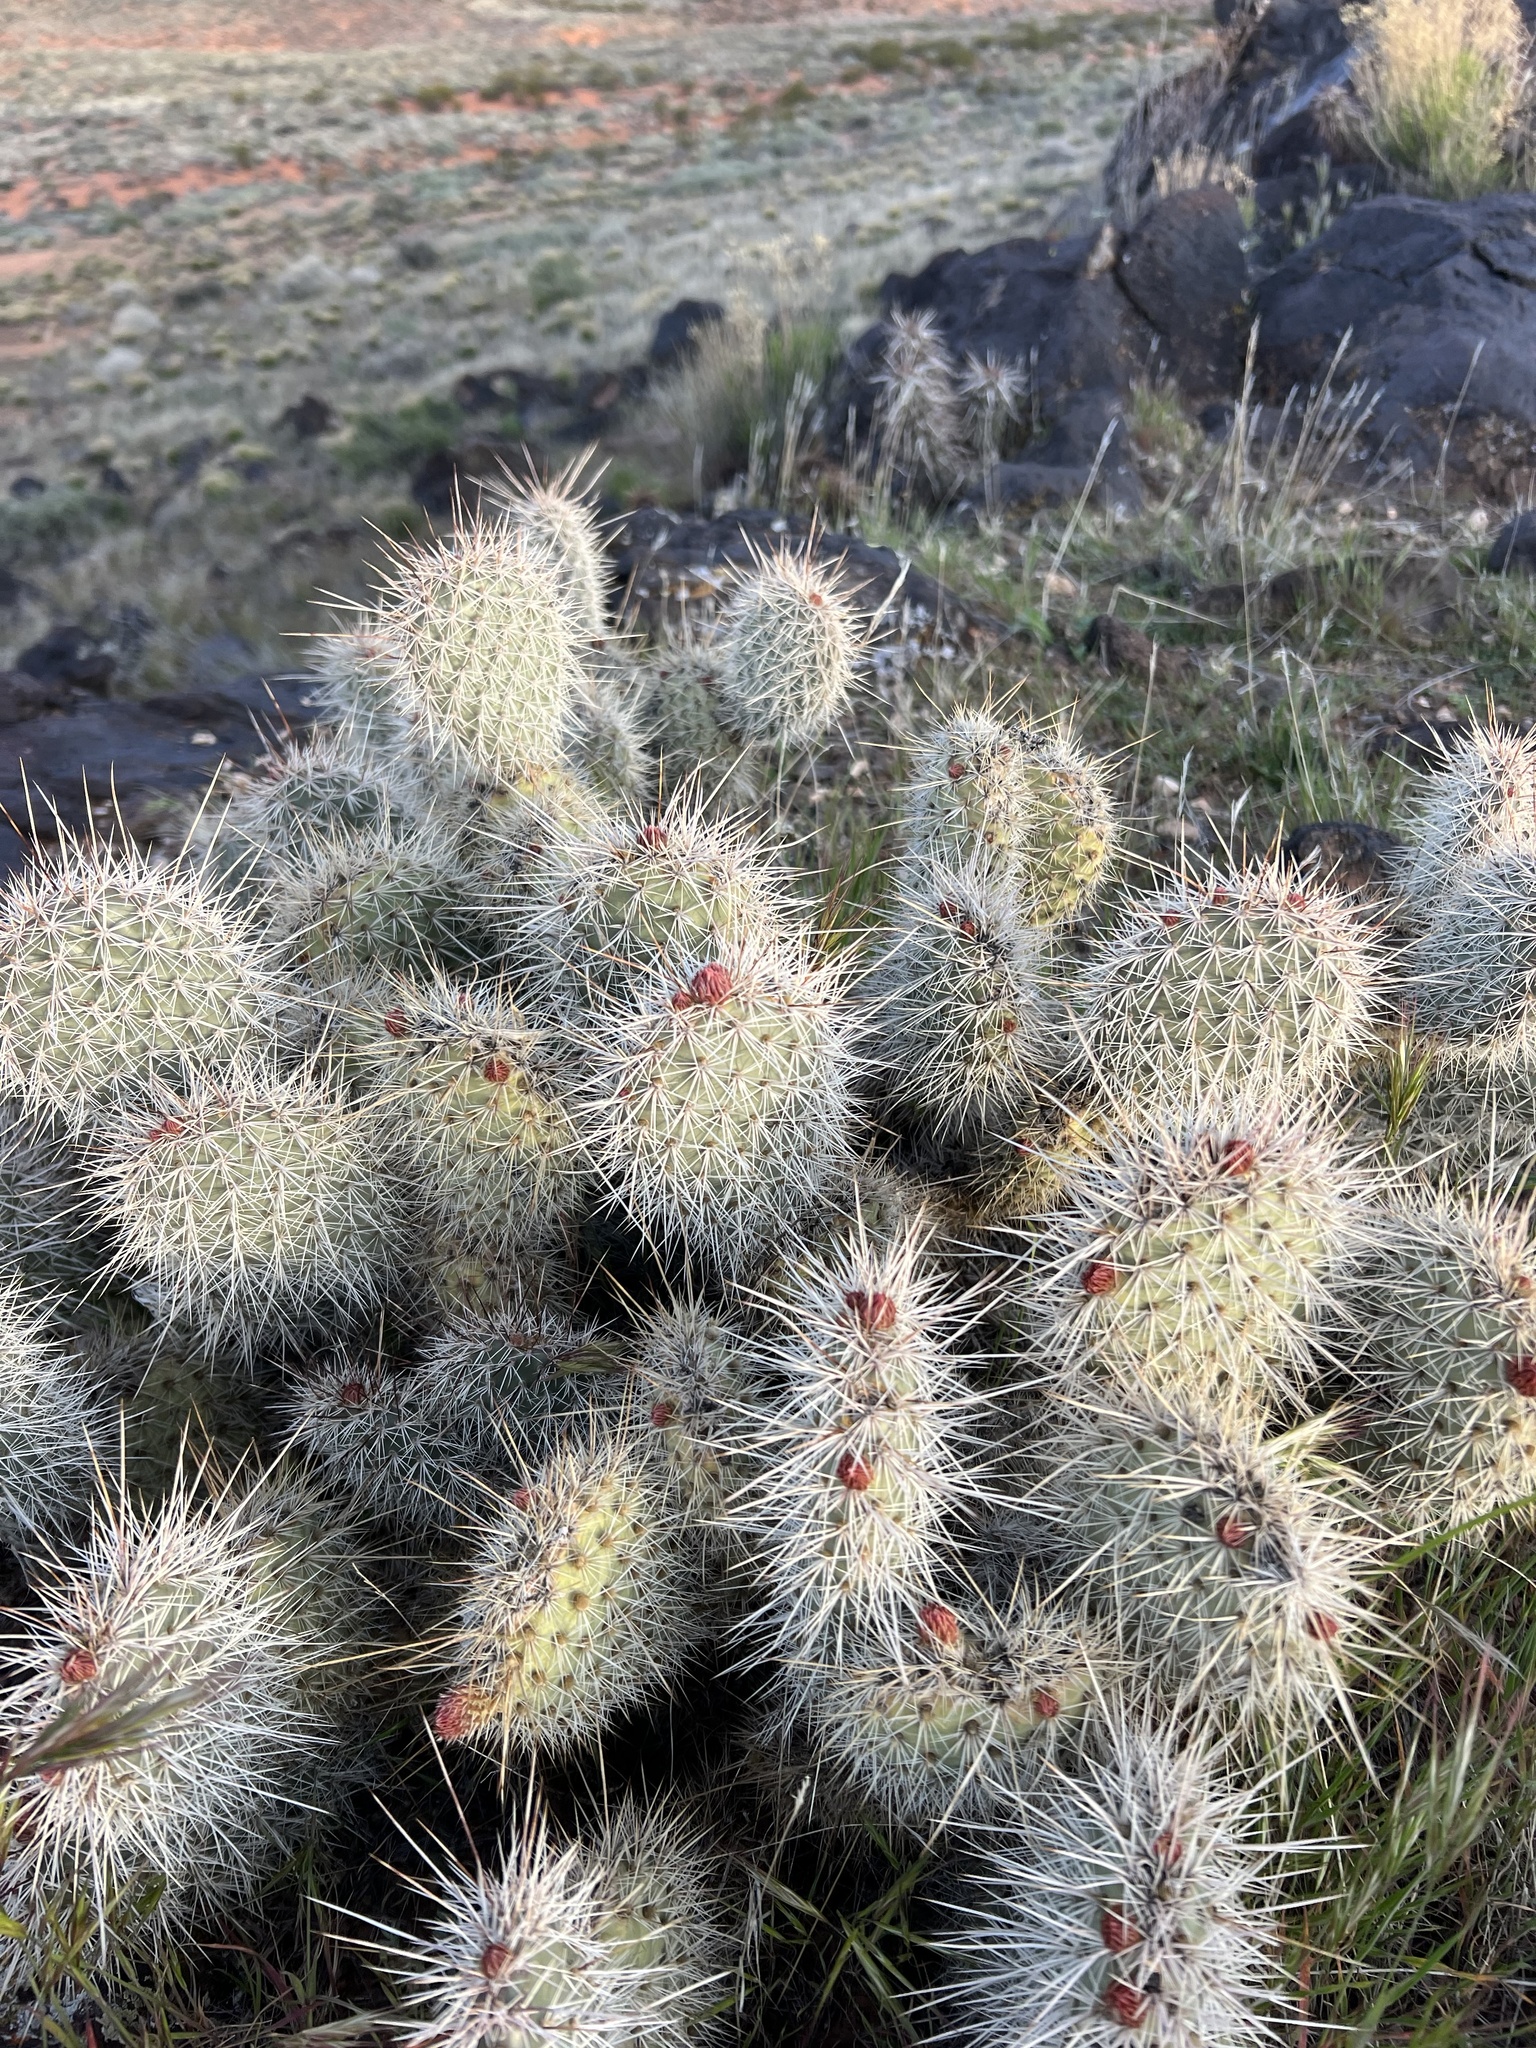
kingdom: Plantae
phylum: Tracheophyta
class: Magnoliopsida
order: Caryophyllales
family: Cactaceae
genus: Opuntia
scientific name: Opuntia polyacantha
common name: Plains prickly-pear
